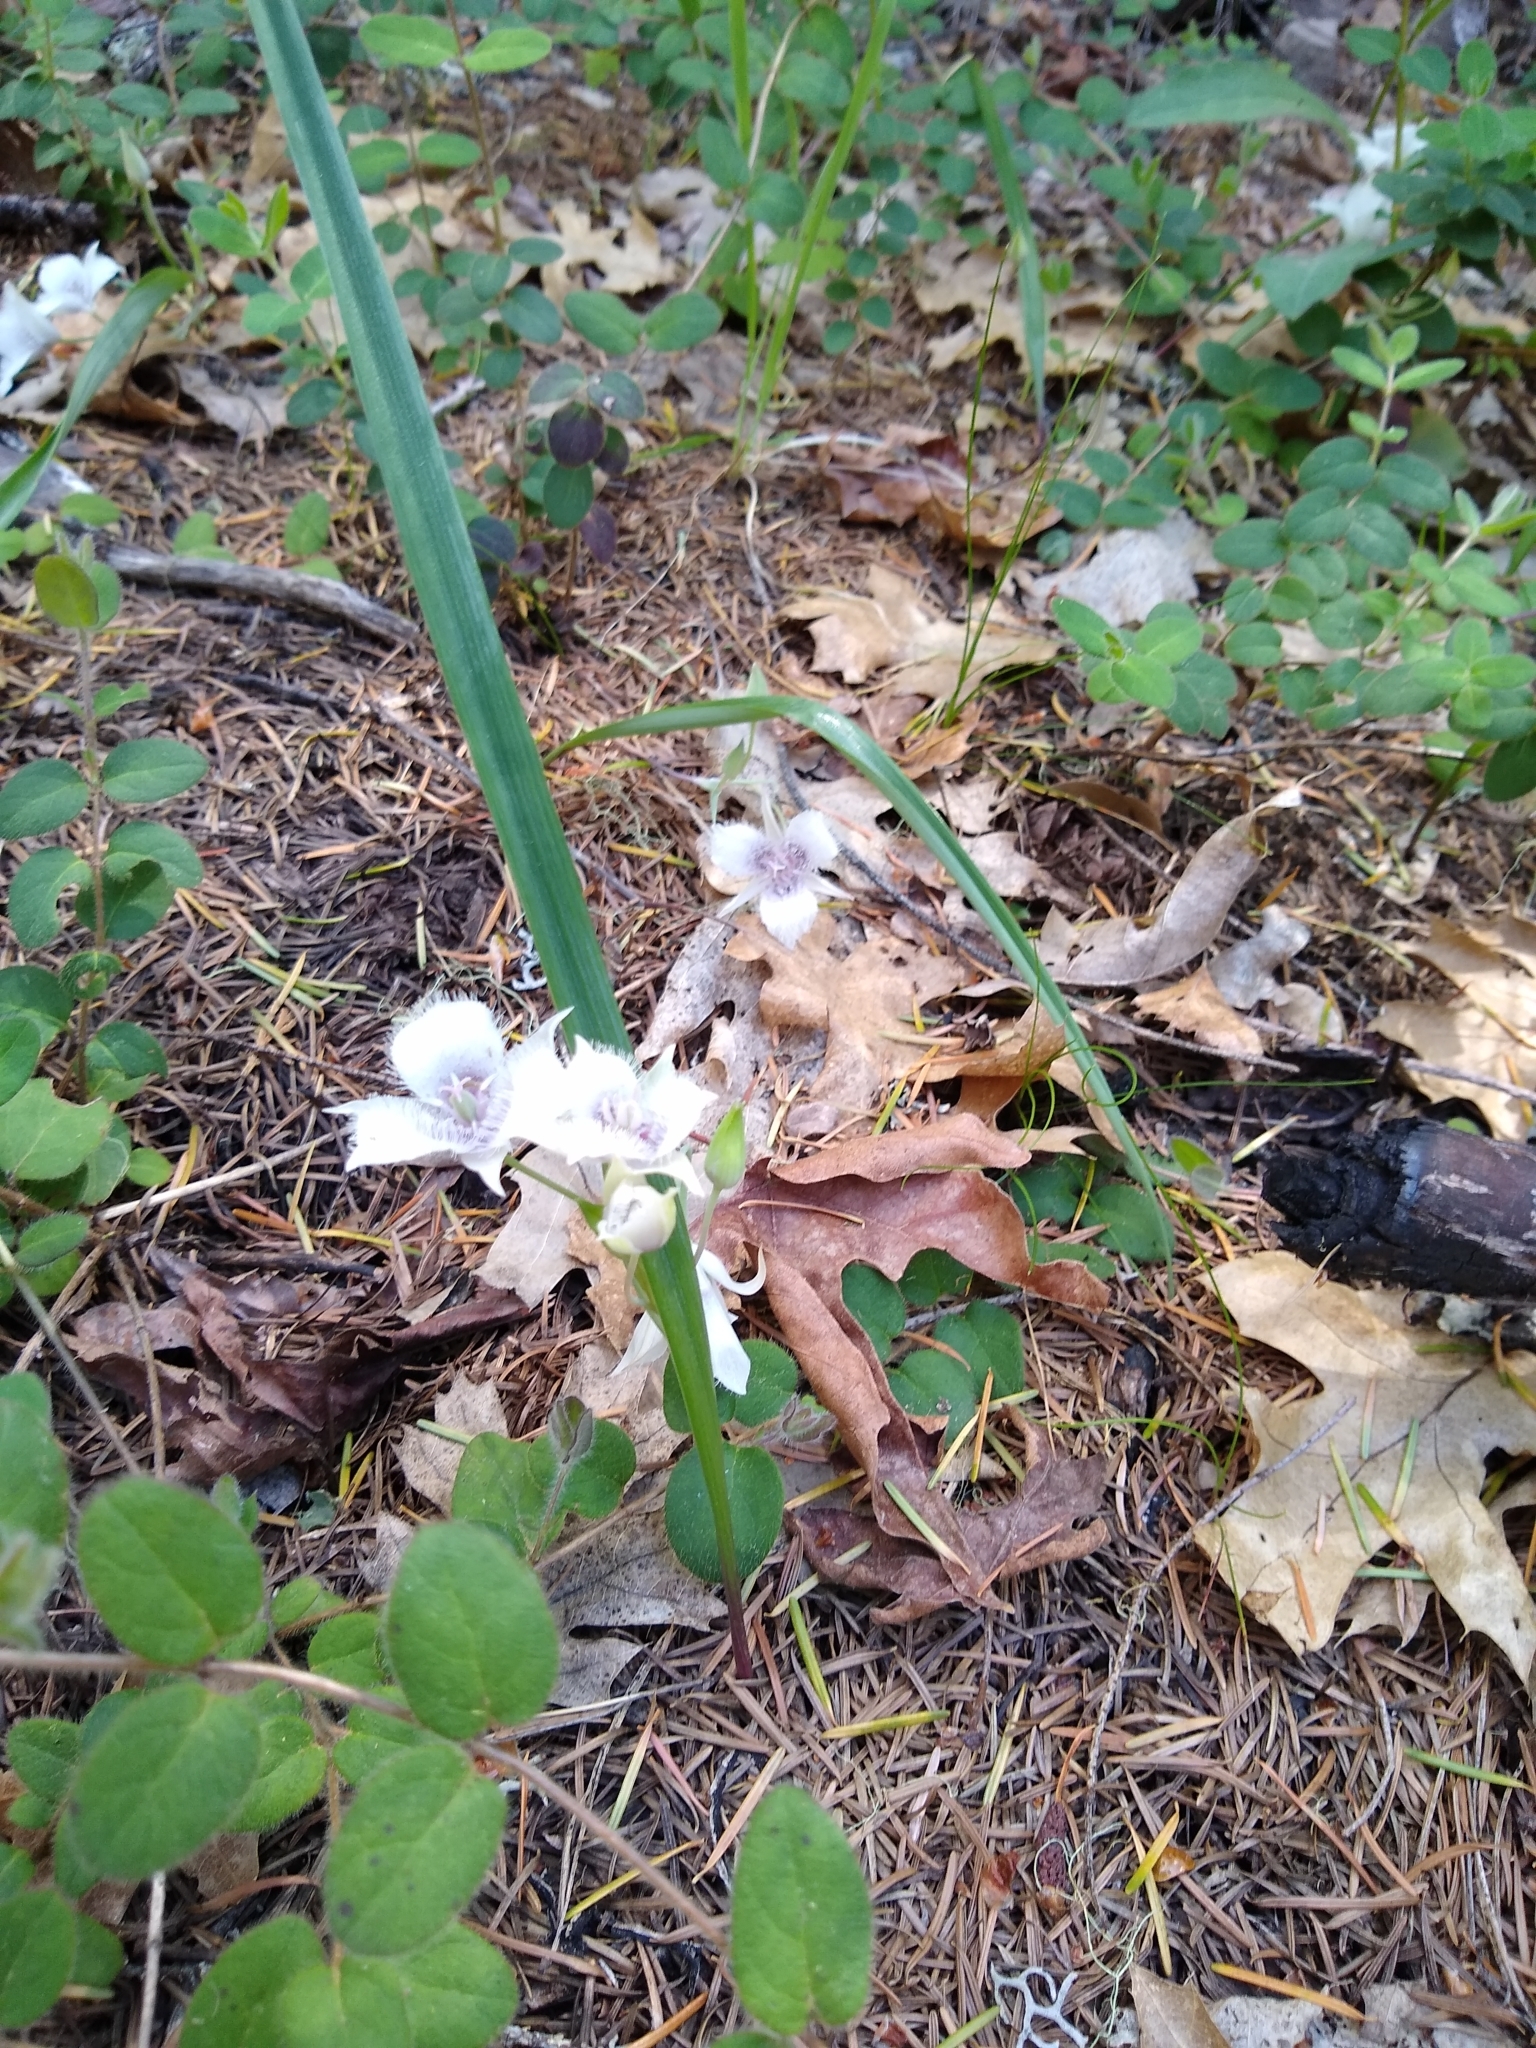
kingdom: Plantae
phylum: Tracheophyta
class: Liliopsida
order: Liliales
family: Liliaceae
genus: Calochortus
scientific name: Calochortus tolmiei
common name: Pussy-ears
